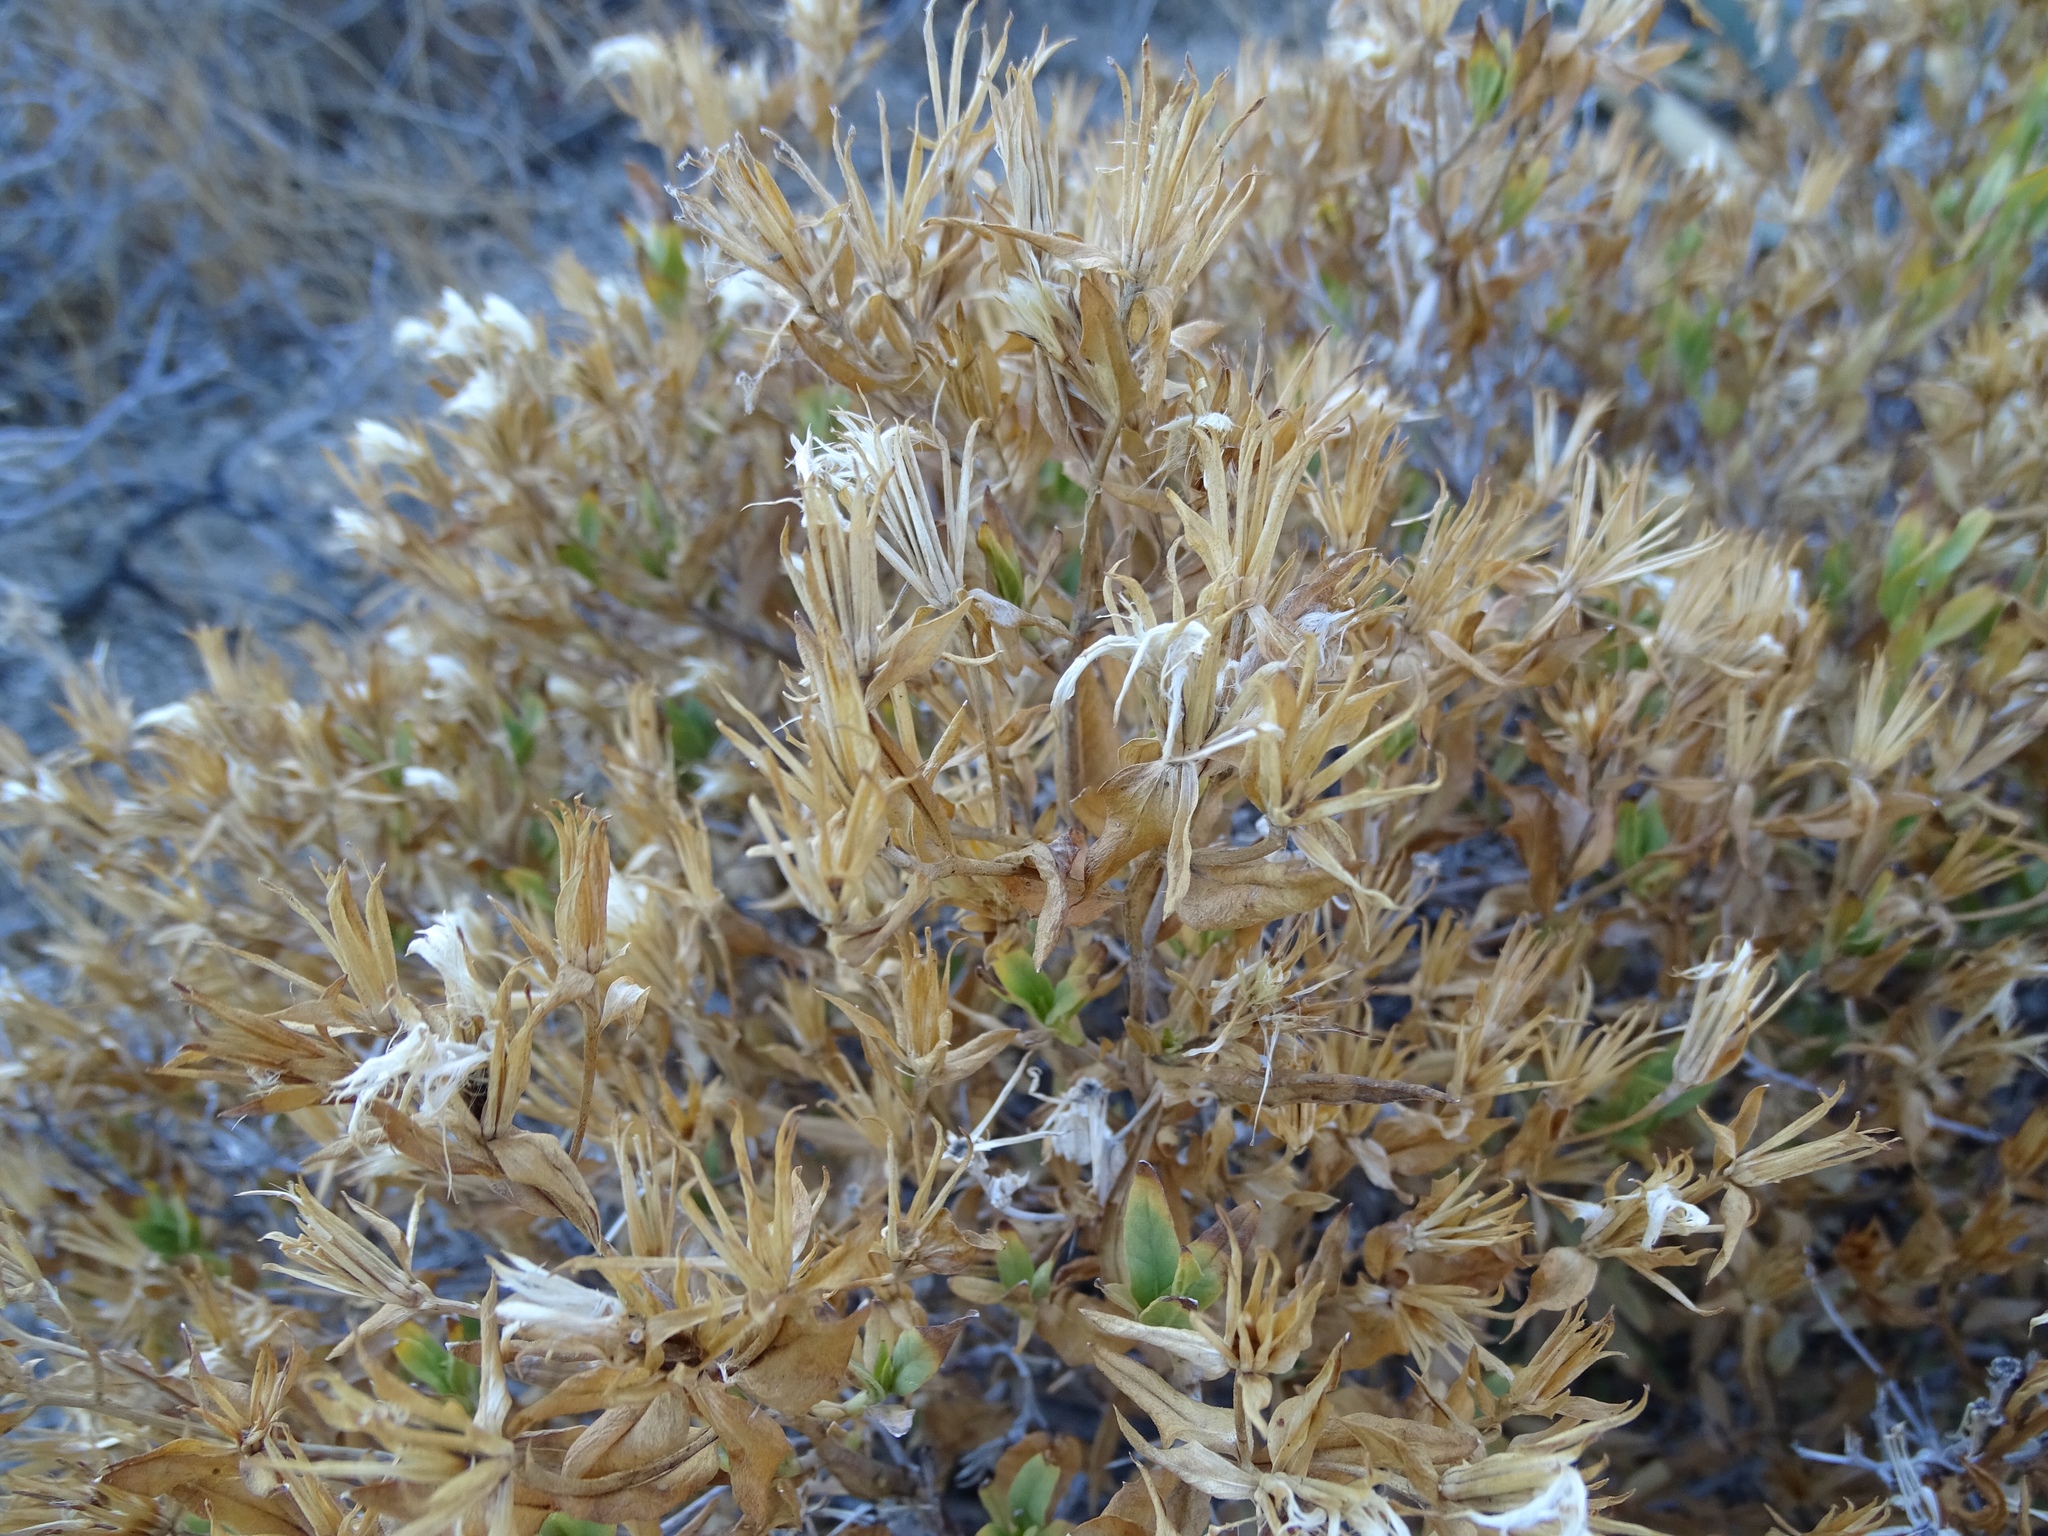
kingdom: Plantae
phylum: Tracheophyta
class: Magnoliopsida
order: Asterales
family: Asteraceae
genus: Trixis
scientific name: Trixis californica
